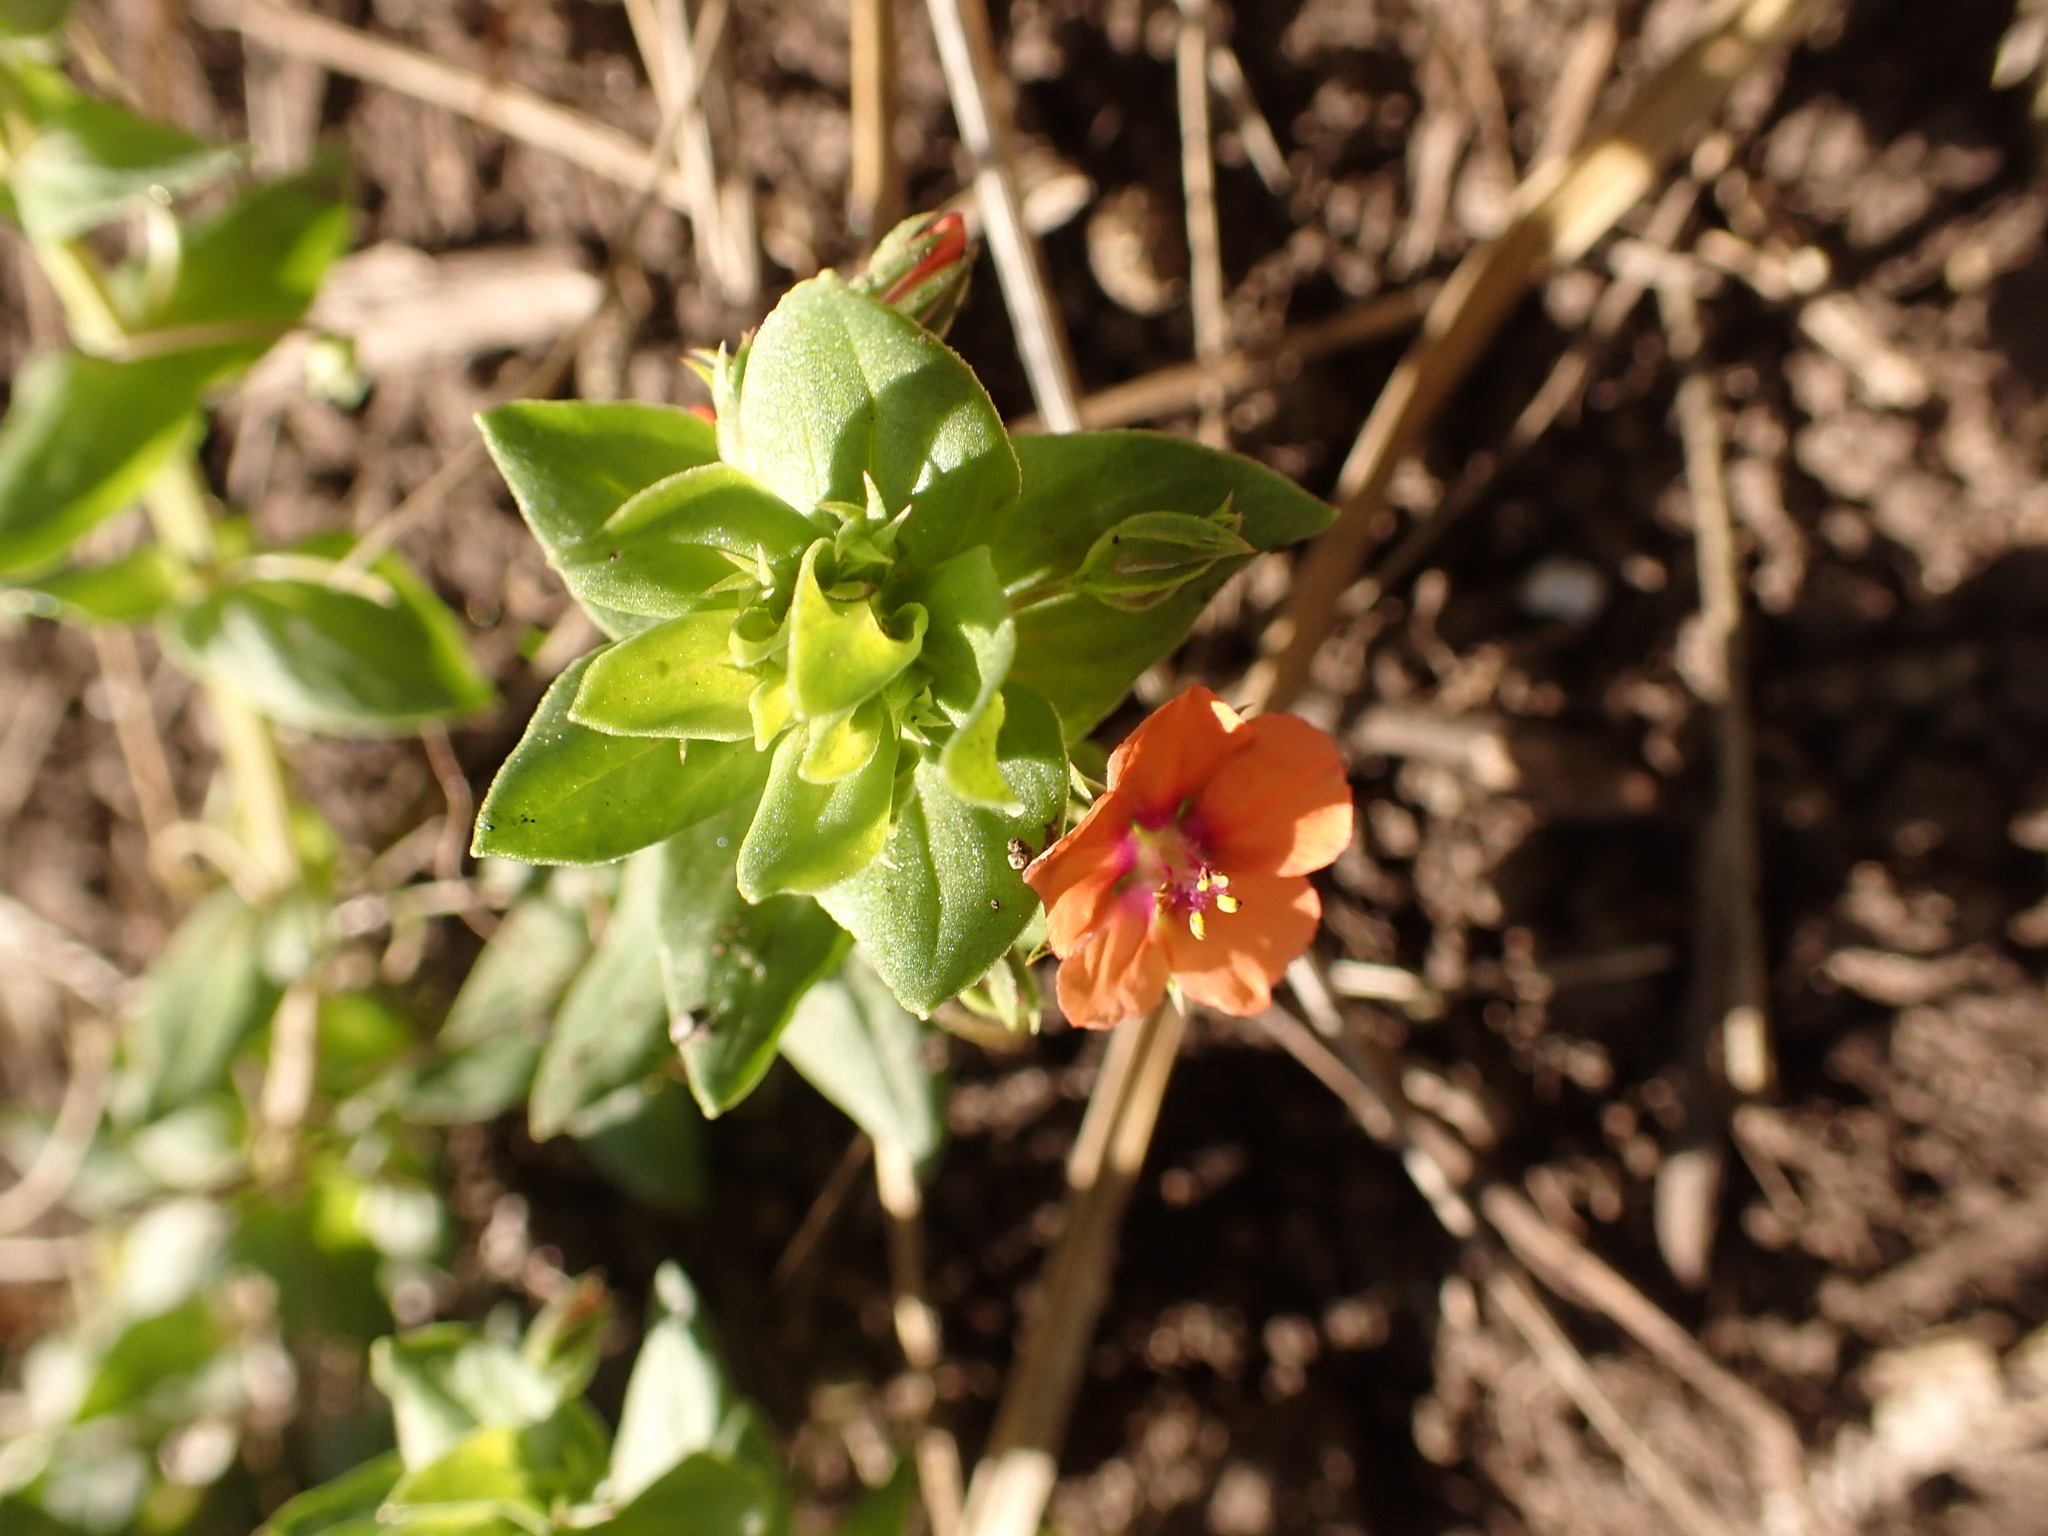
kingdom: Plantae
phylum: Tracheophyta
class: Magnoliopsida
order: Ericales
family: Primulaceae
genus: Lysimachia
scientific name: Lysimachia arvensis
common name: Scarlet pimpernel
